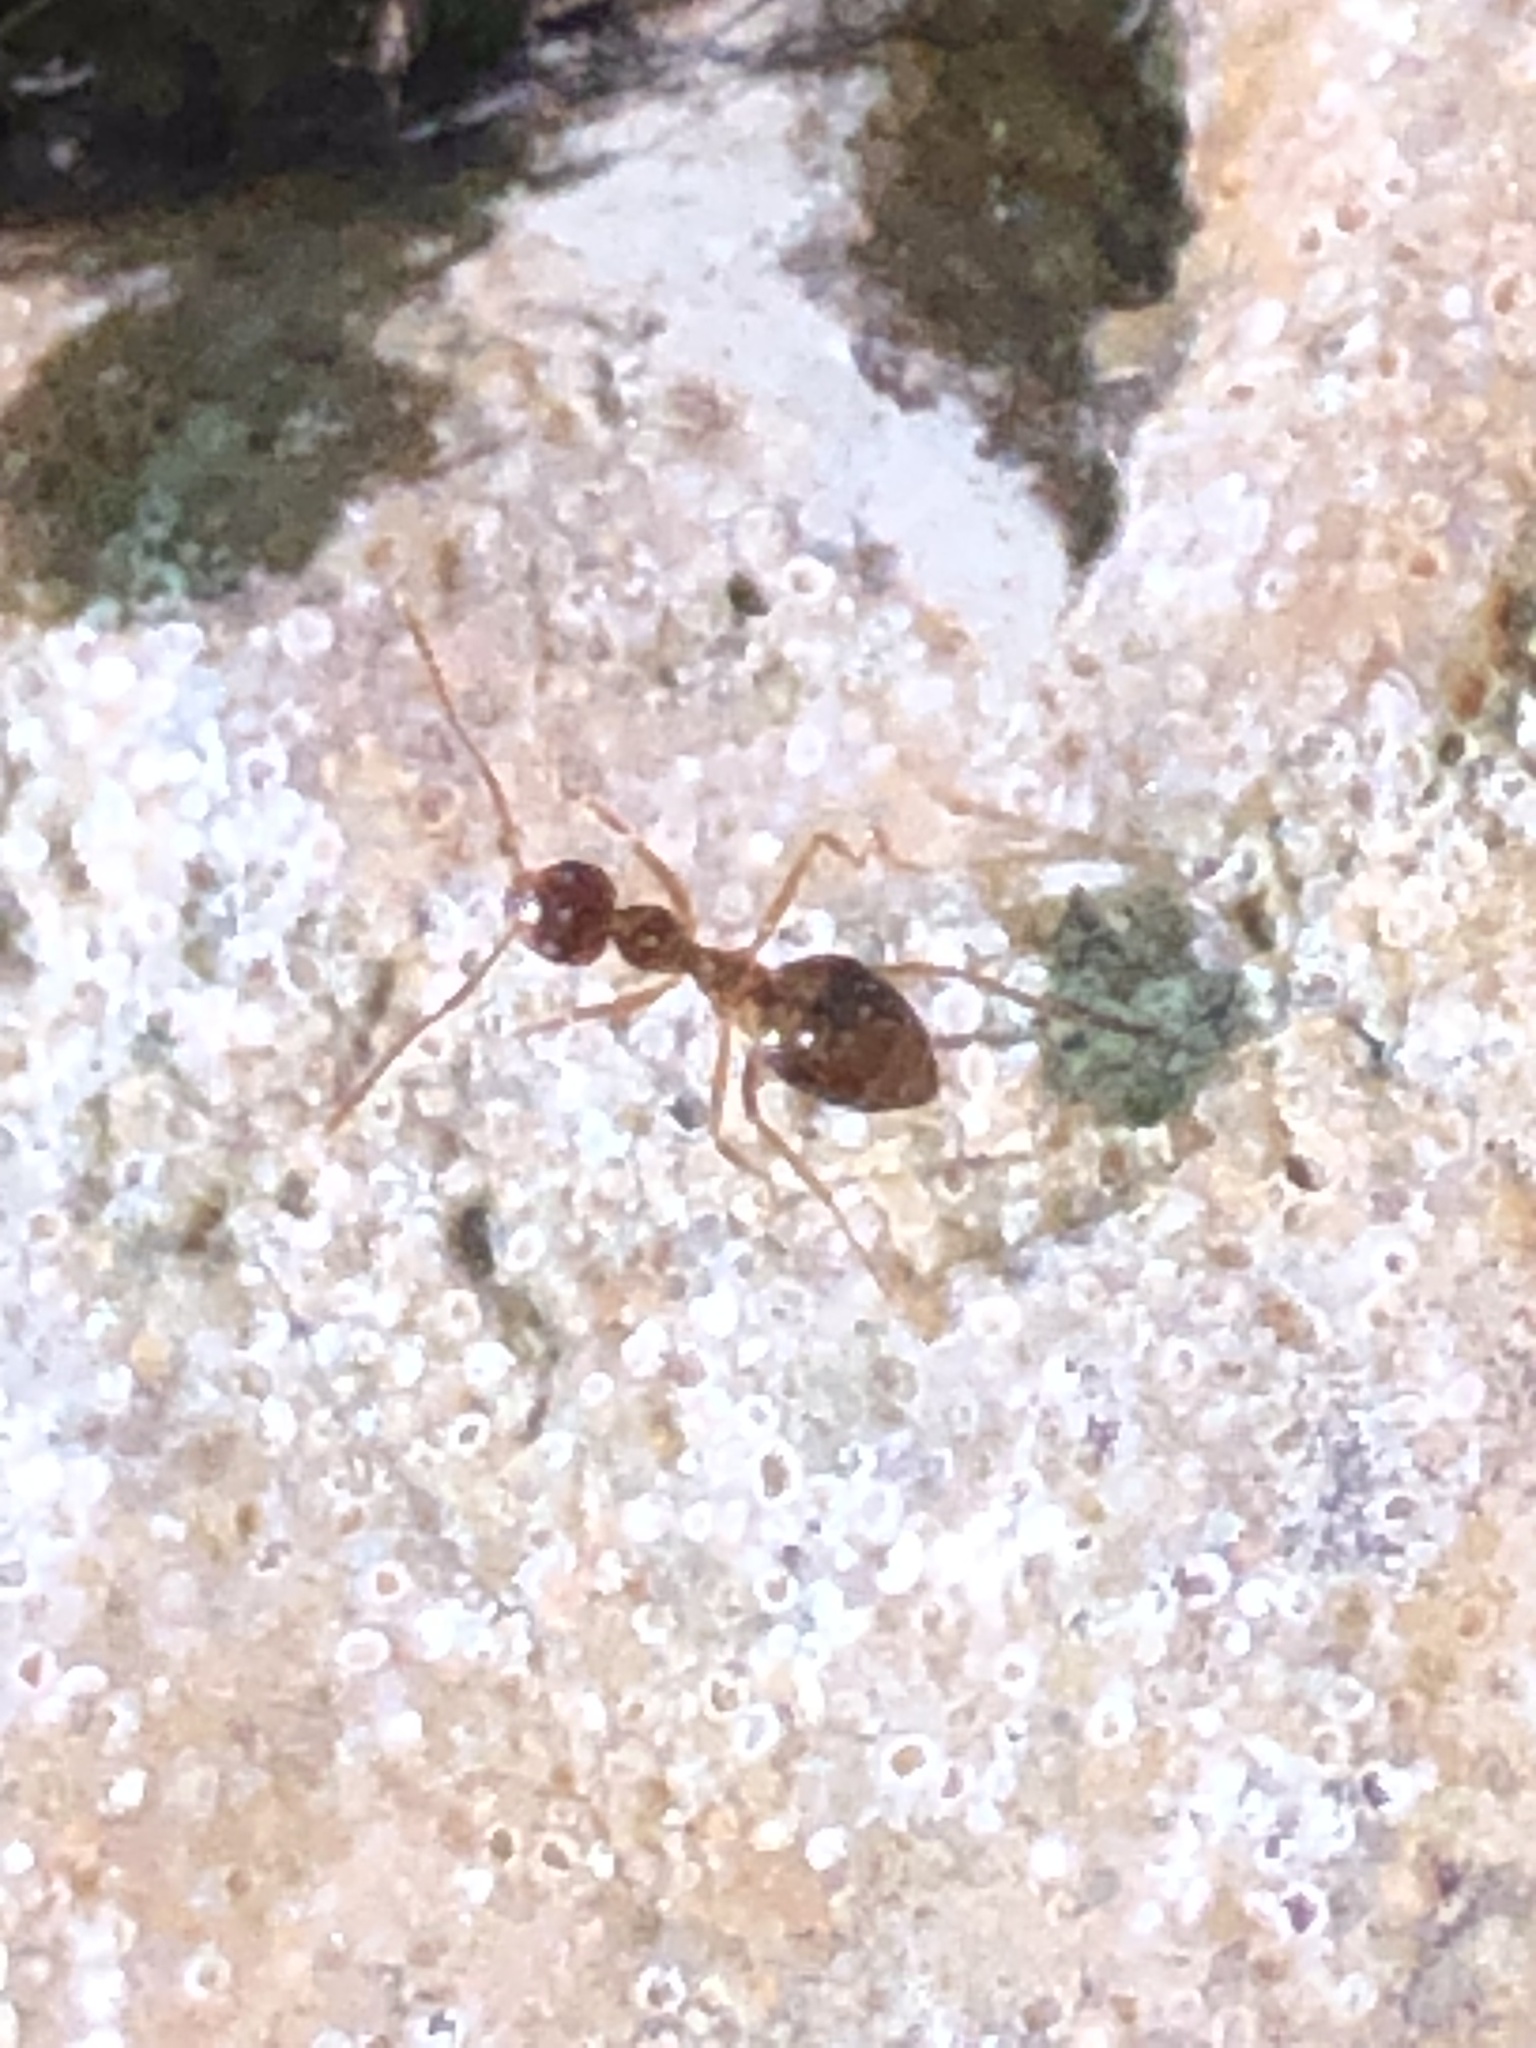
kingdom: Animalia
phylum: Arthropoda
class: Insecta
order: Hymenoptera
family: Formicidae
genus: Prenolepis
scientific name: Prenolepis imparis
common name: Small honey ant
